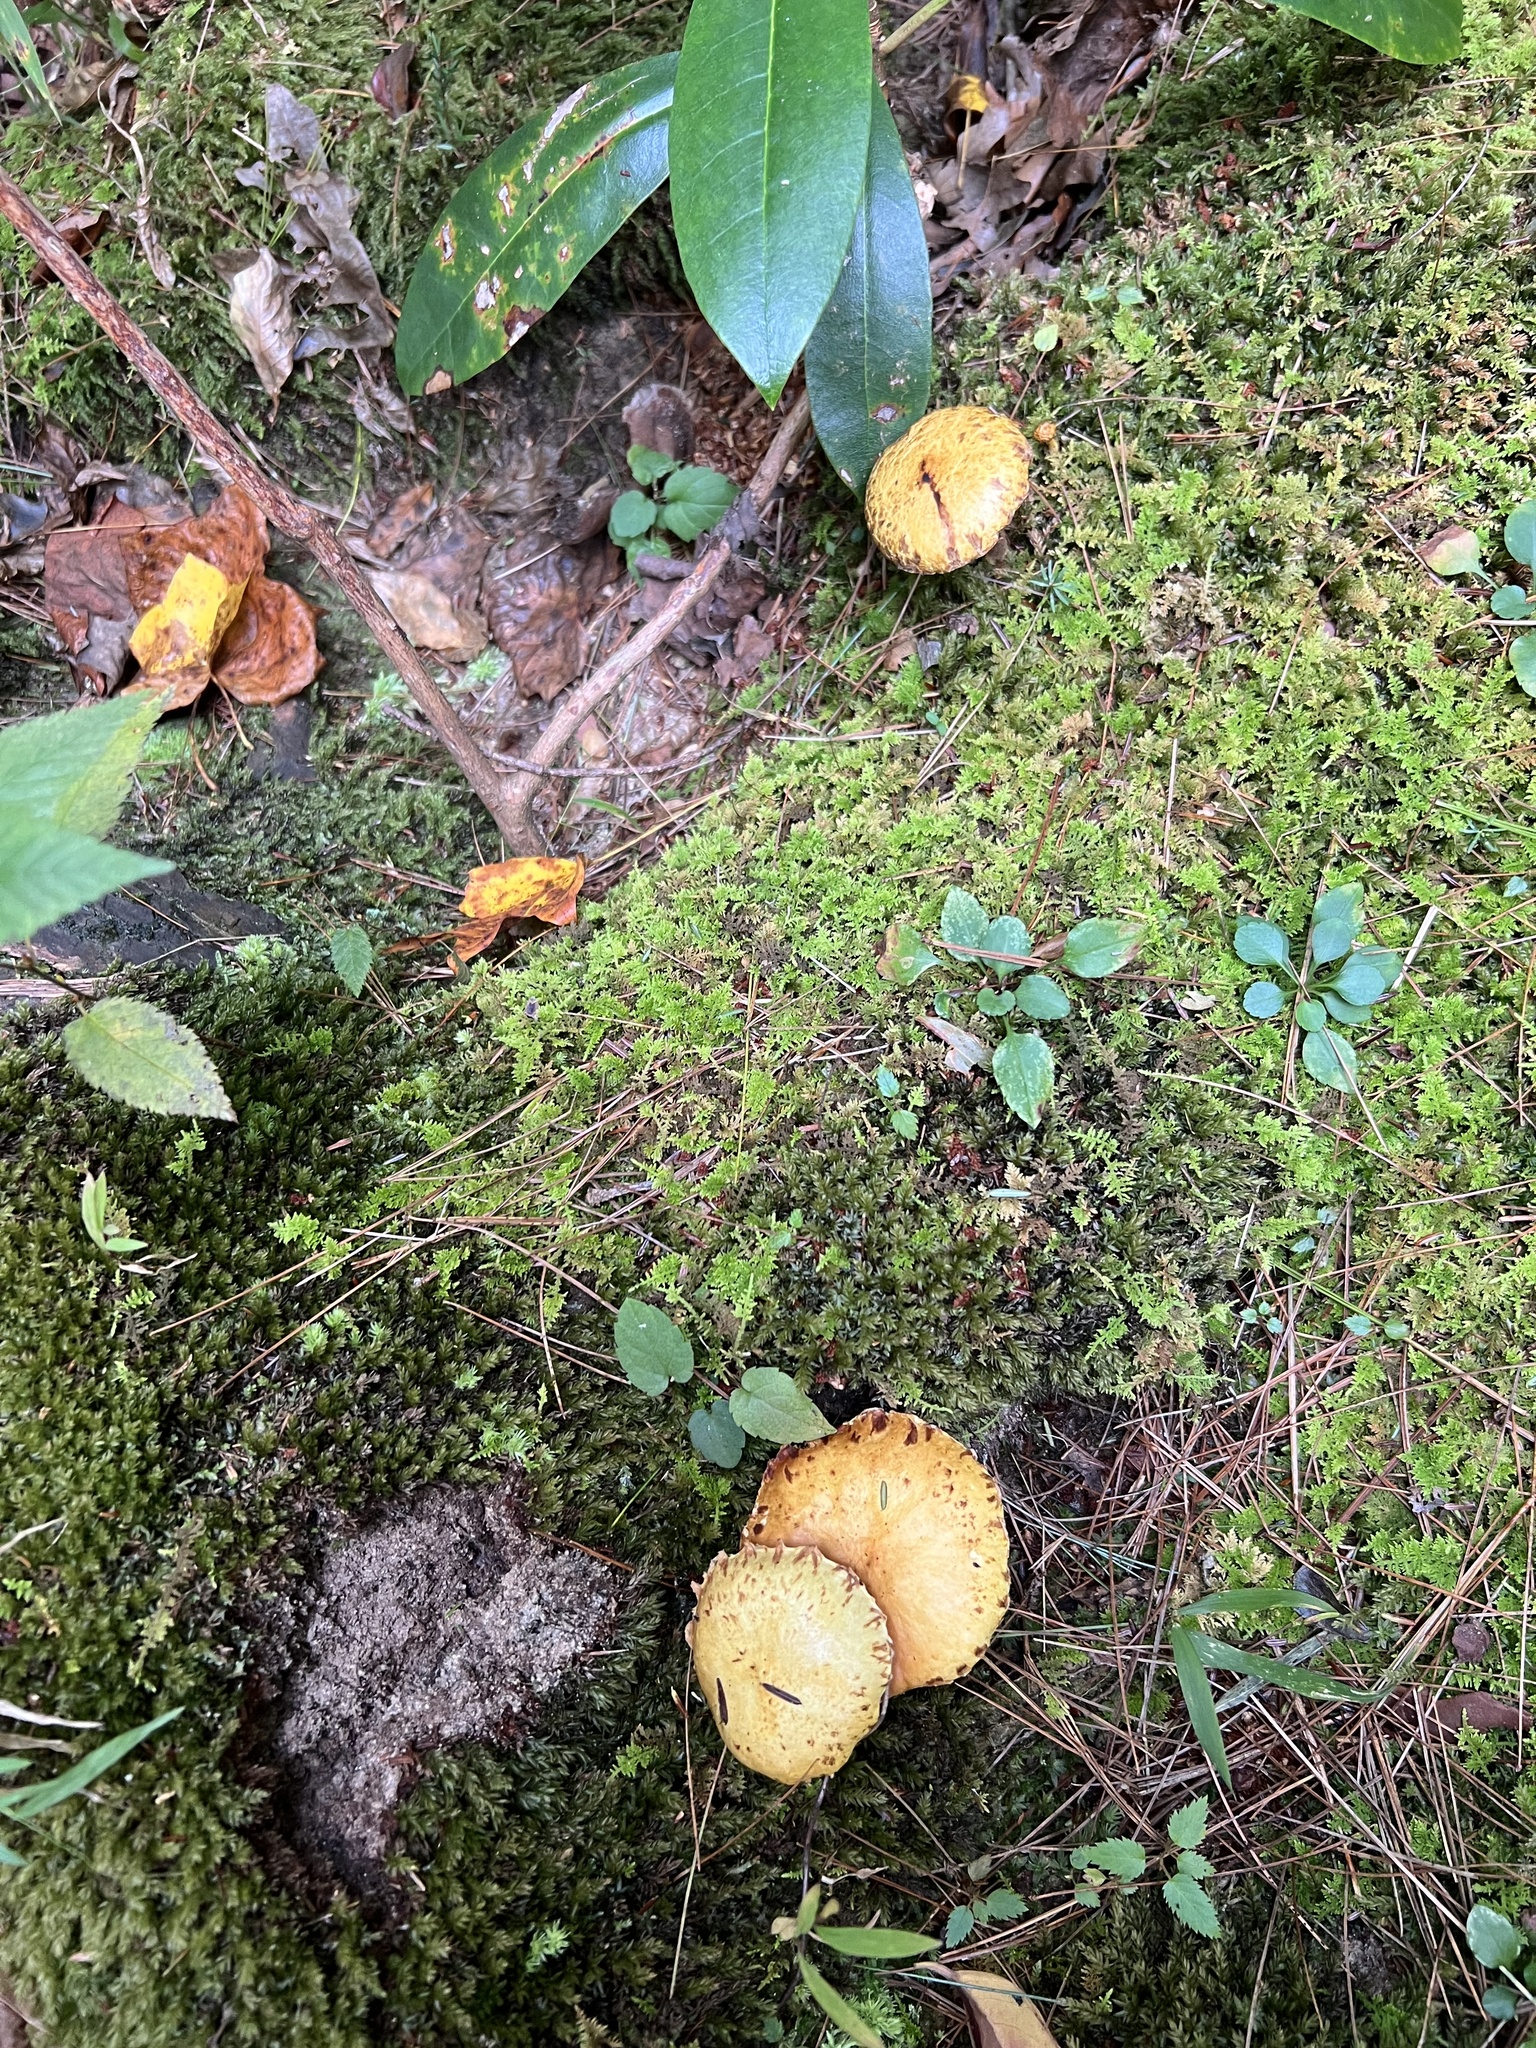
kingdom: Fungi
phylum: Basidiomycota
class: Agaricomycetes
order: Boletales
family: Suillaceae
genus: Suillus
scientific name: Suillus americanus
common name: Chicken fat mushroom
